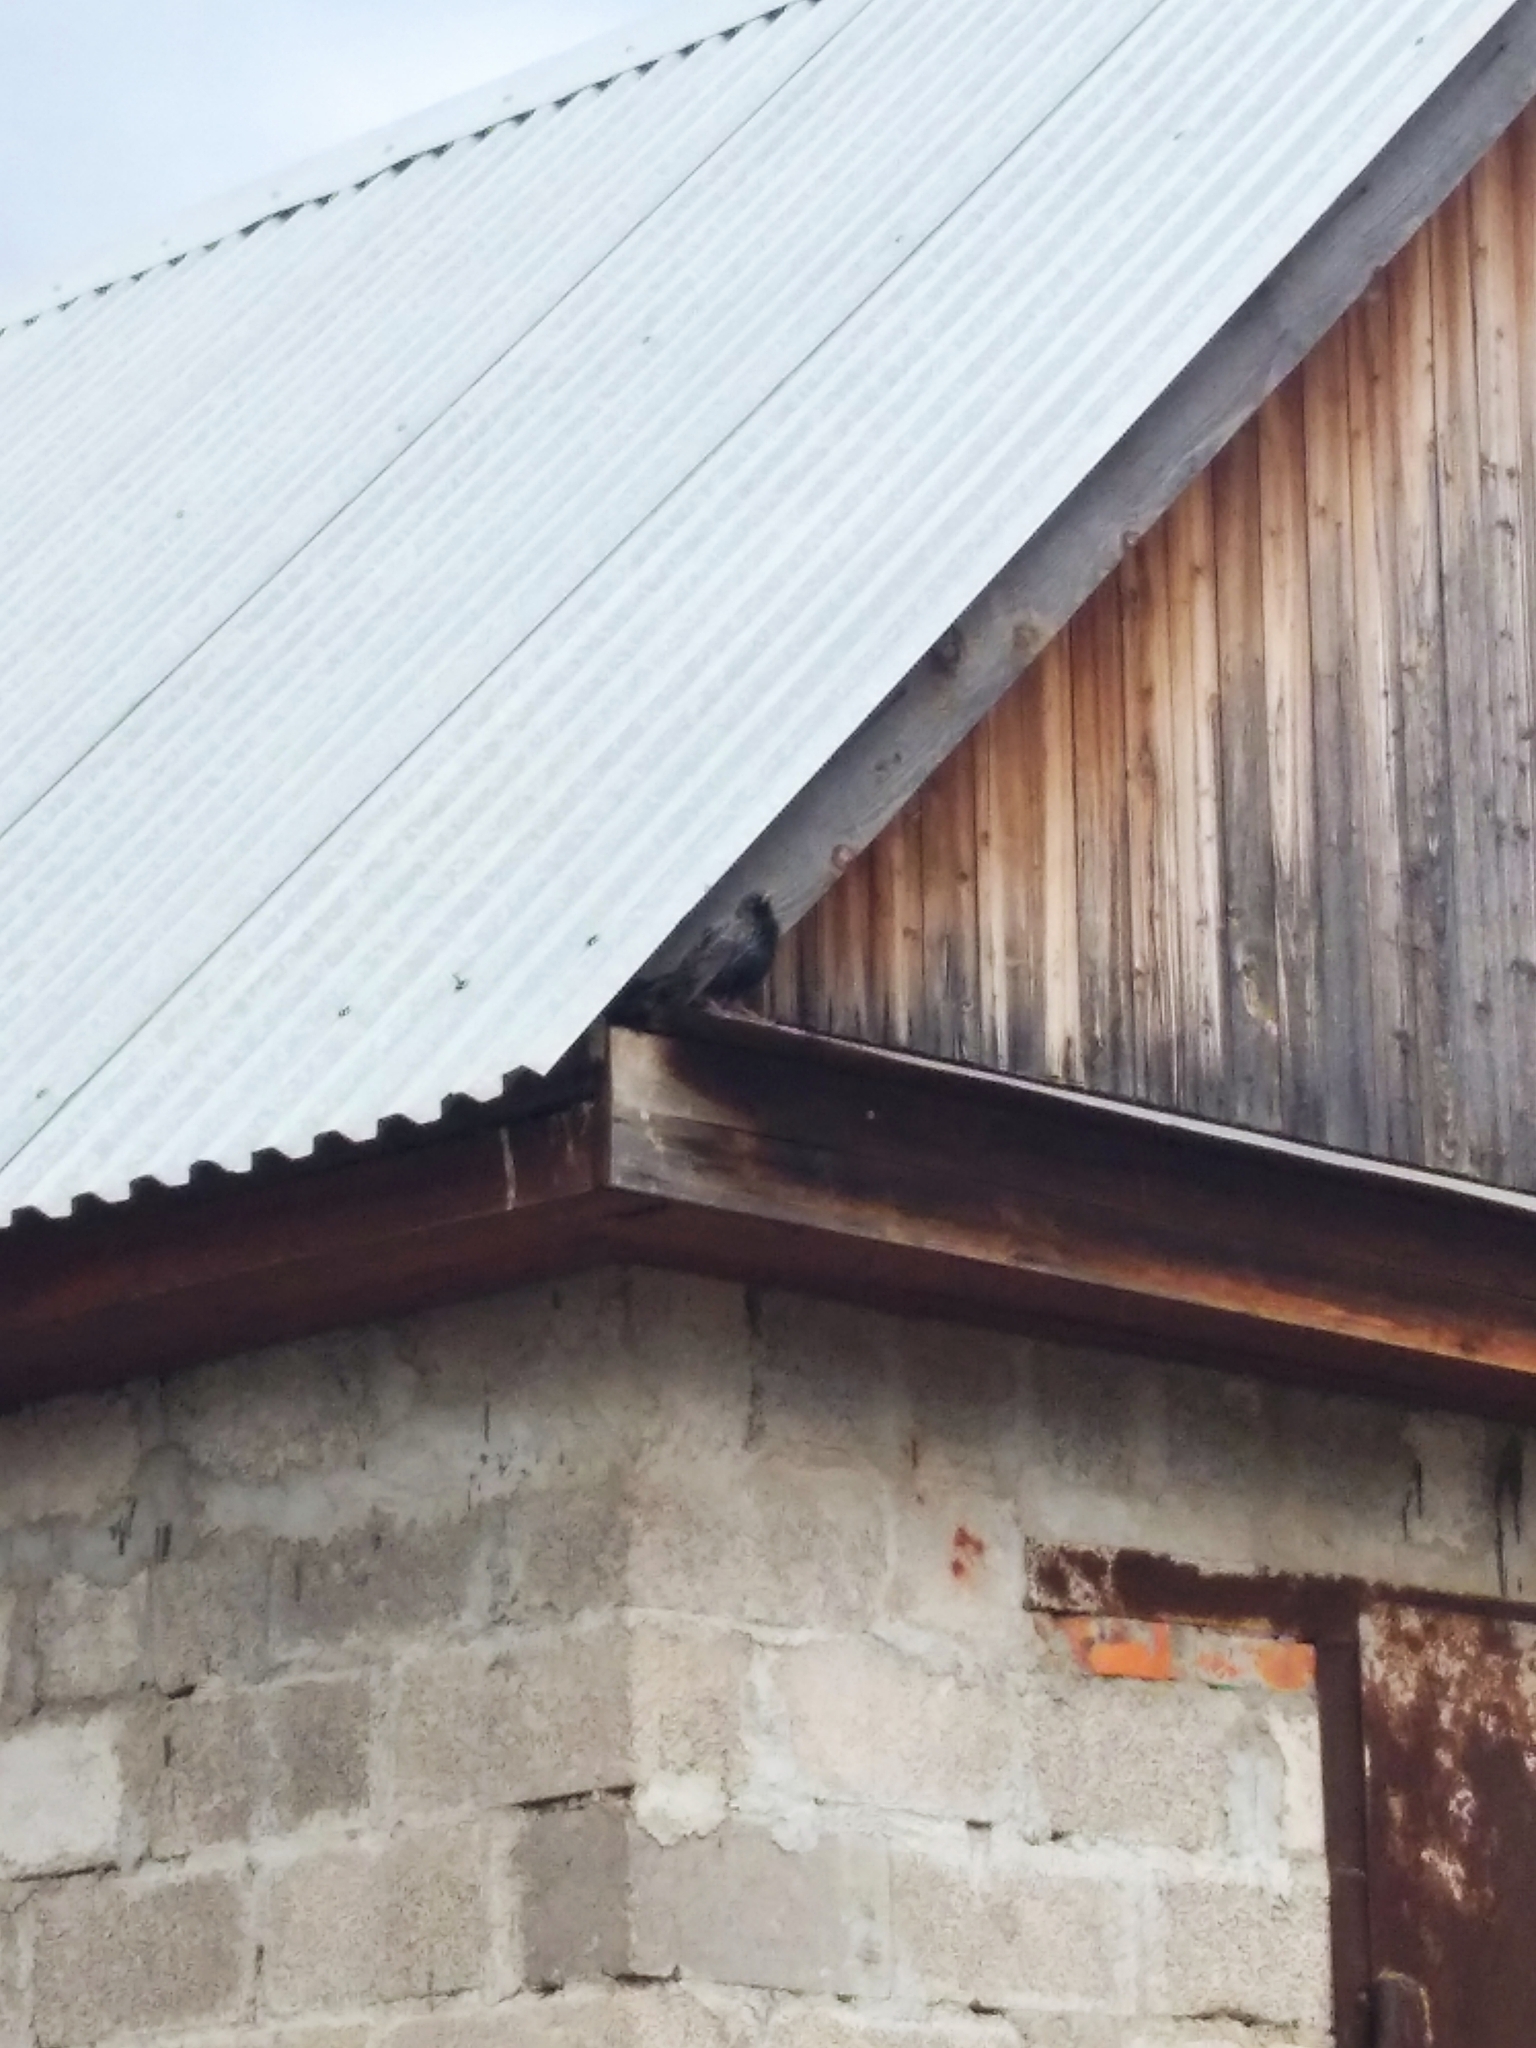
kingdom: Animalia
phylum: Chordata
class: Aves
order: Passeriformes
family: Sturnidae
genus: Sturnus
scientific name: Sturnus vulgaris
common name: Common starling
